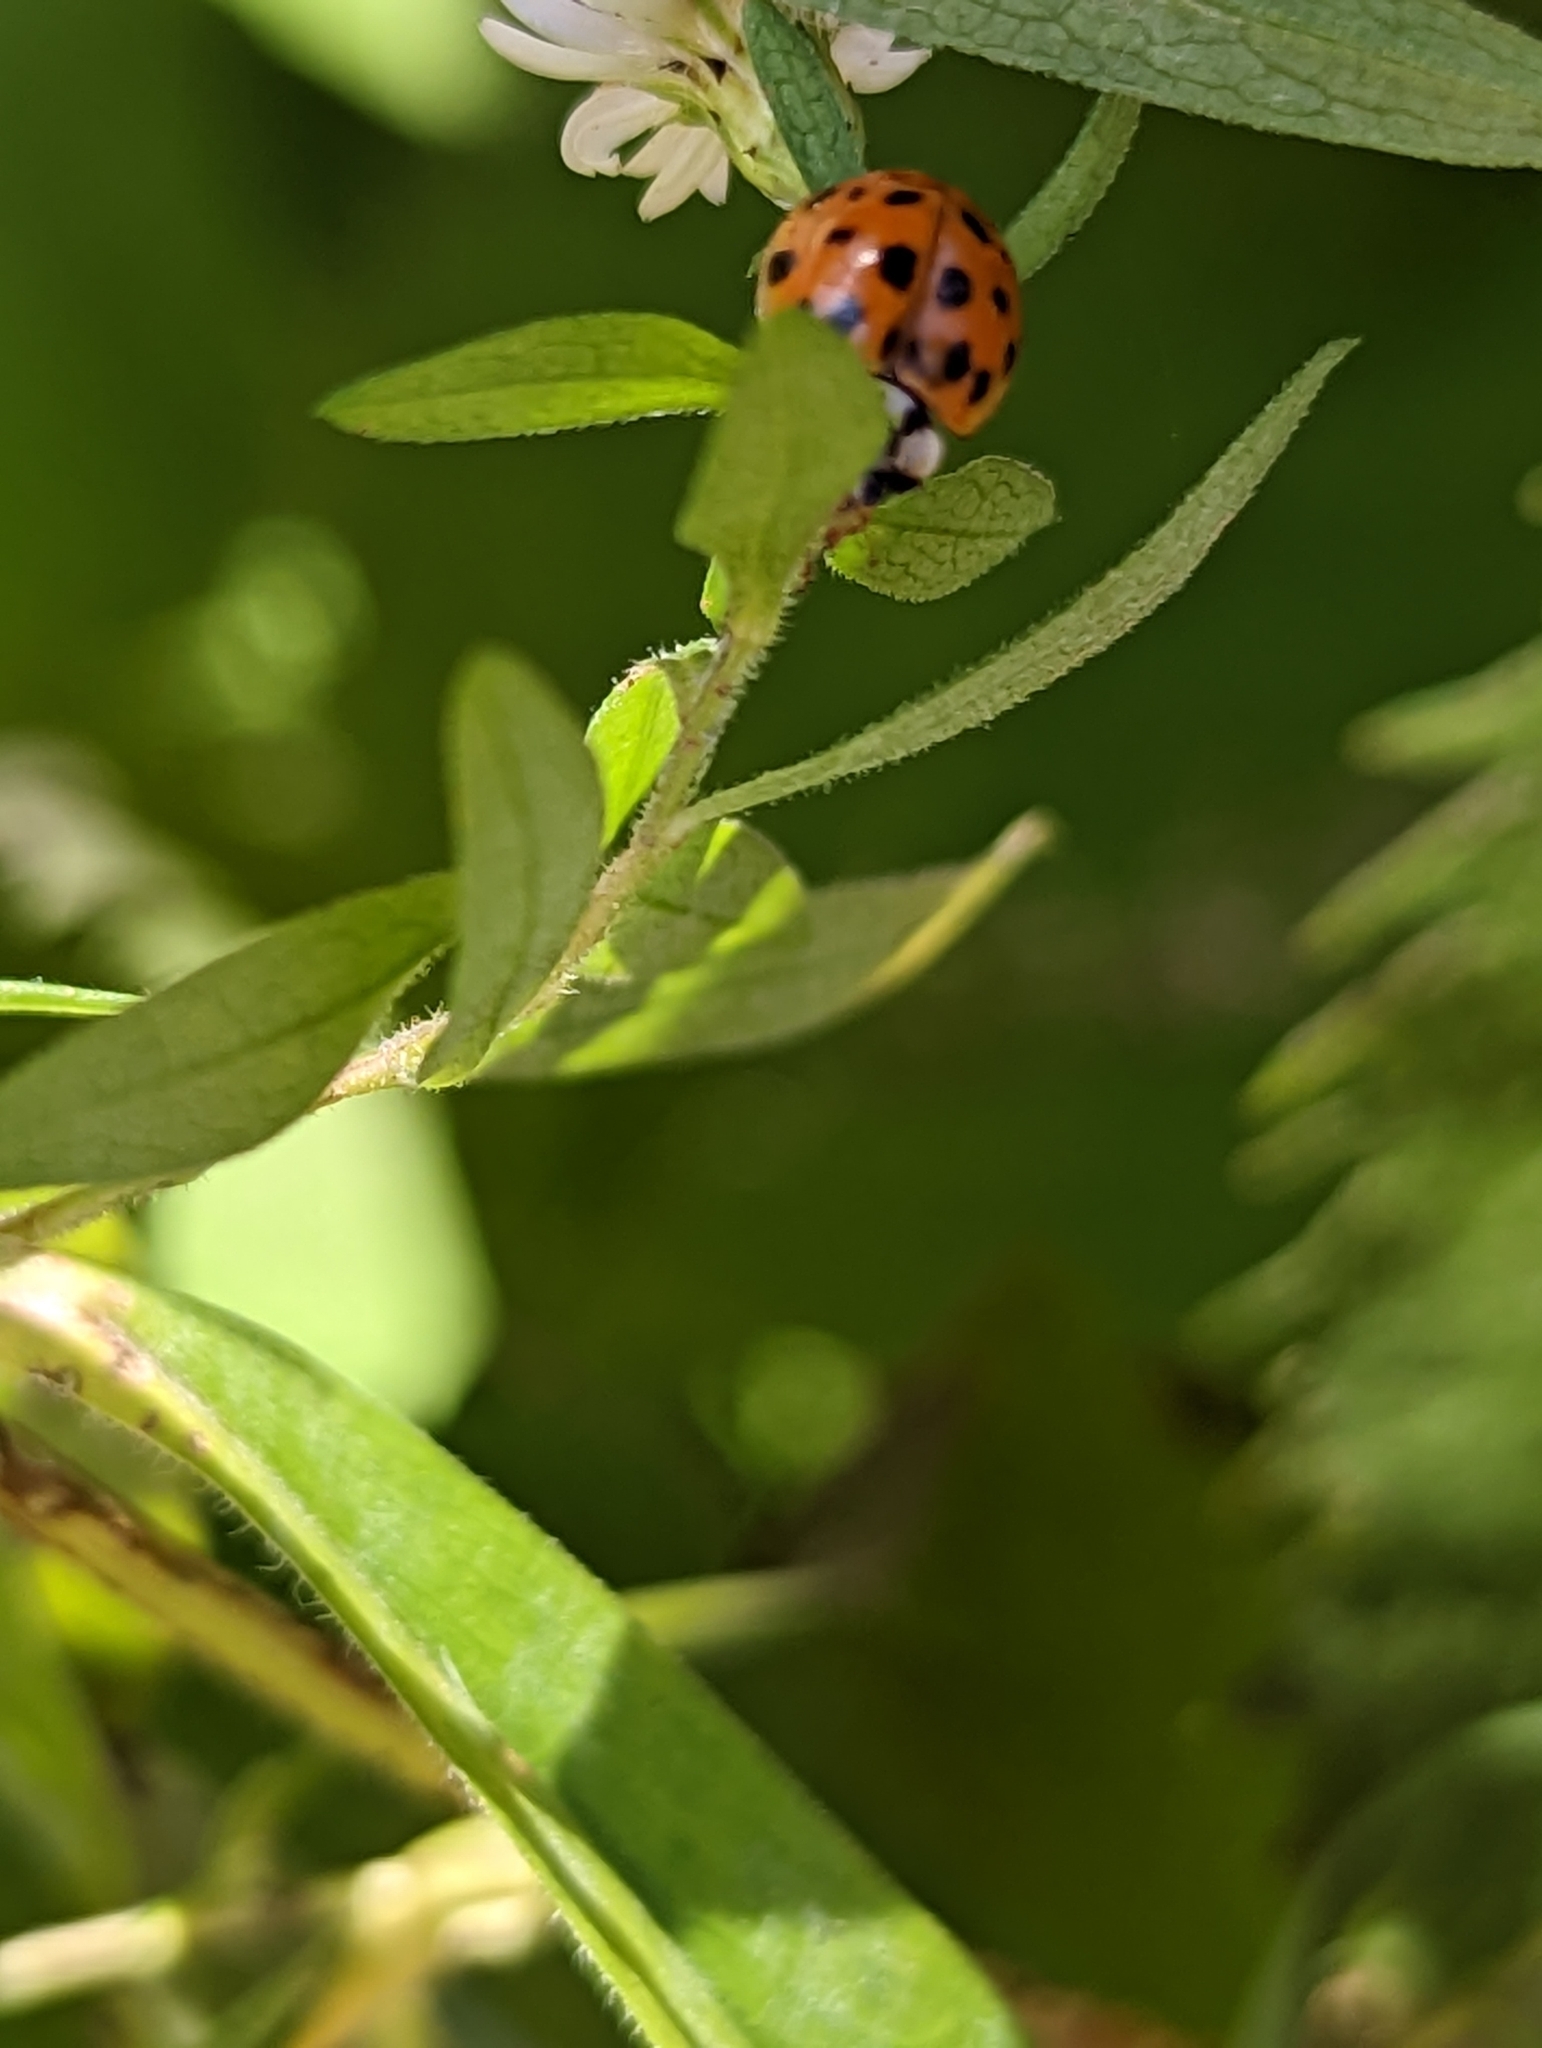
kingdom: Animalia
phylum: Arthropoda
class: Insecta
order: Coleoptera
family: Coccinellidae
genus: Harmonia
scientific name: Harmonia axyridis
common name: Harlequin ladybird
